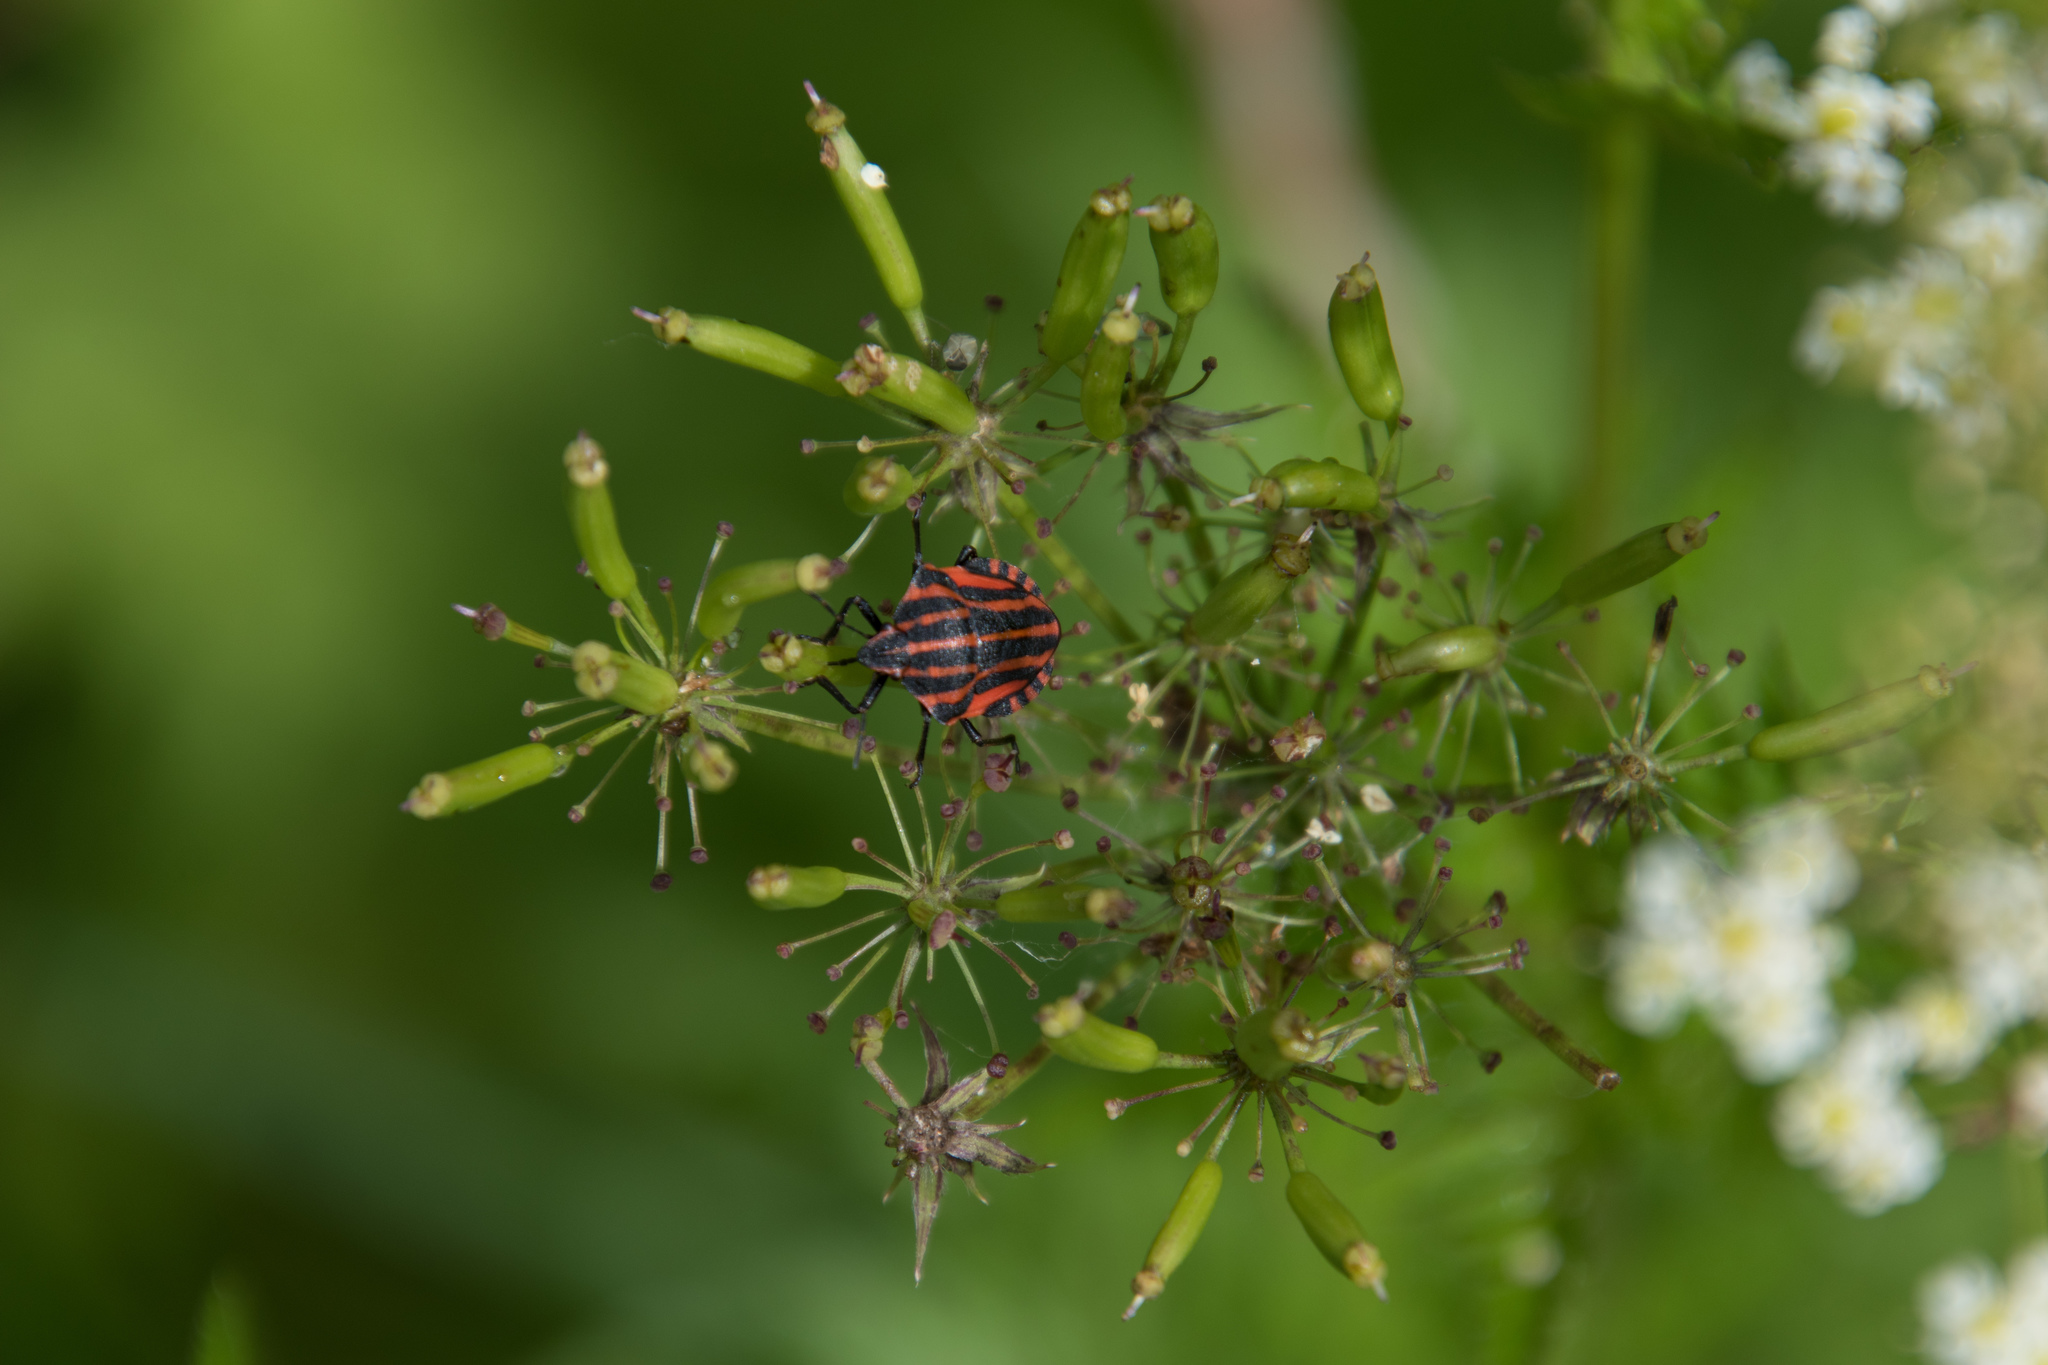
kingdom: Animalia
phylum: Arthropoda
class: Insecta
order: Hemiptera
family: Pentatomidae
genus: Graphosoma
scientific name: Graphosoma italicum
